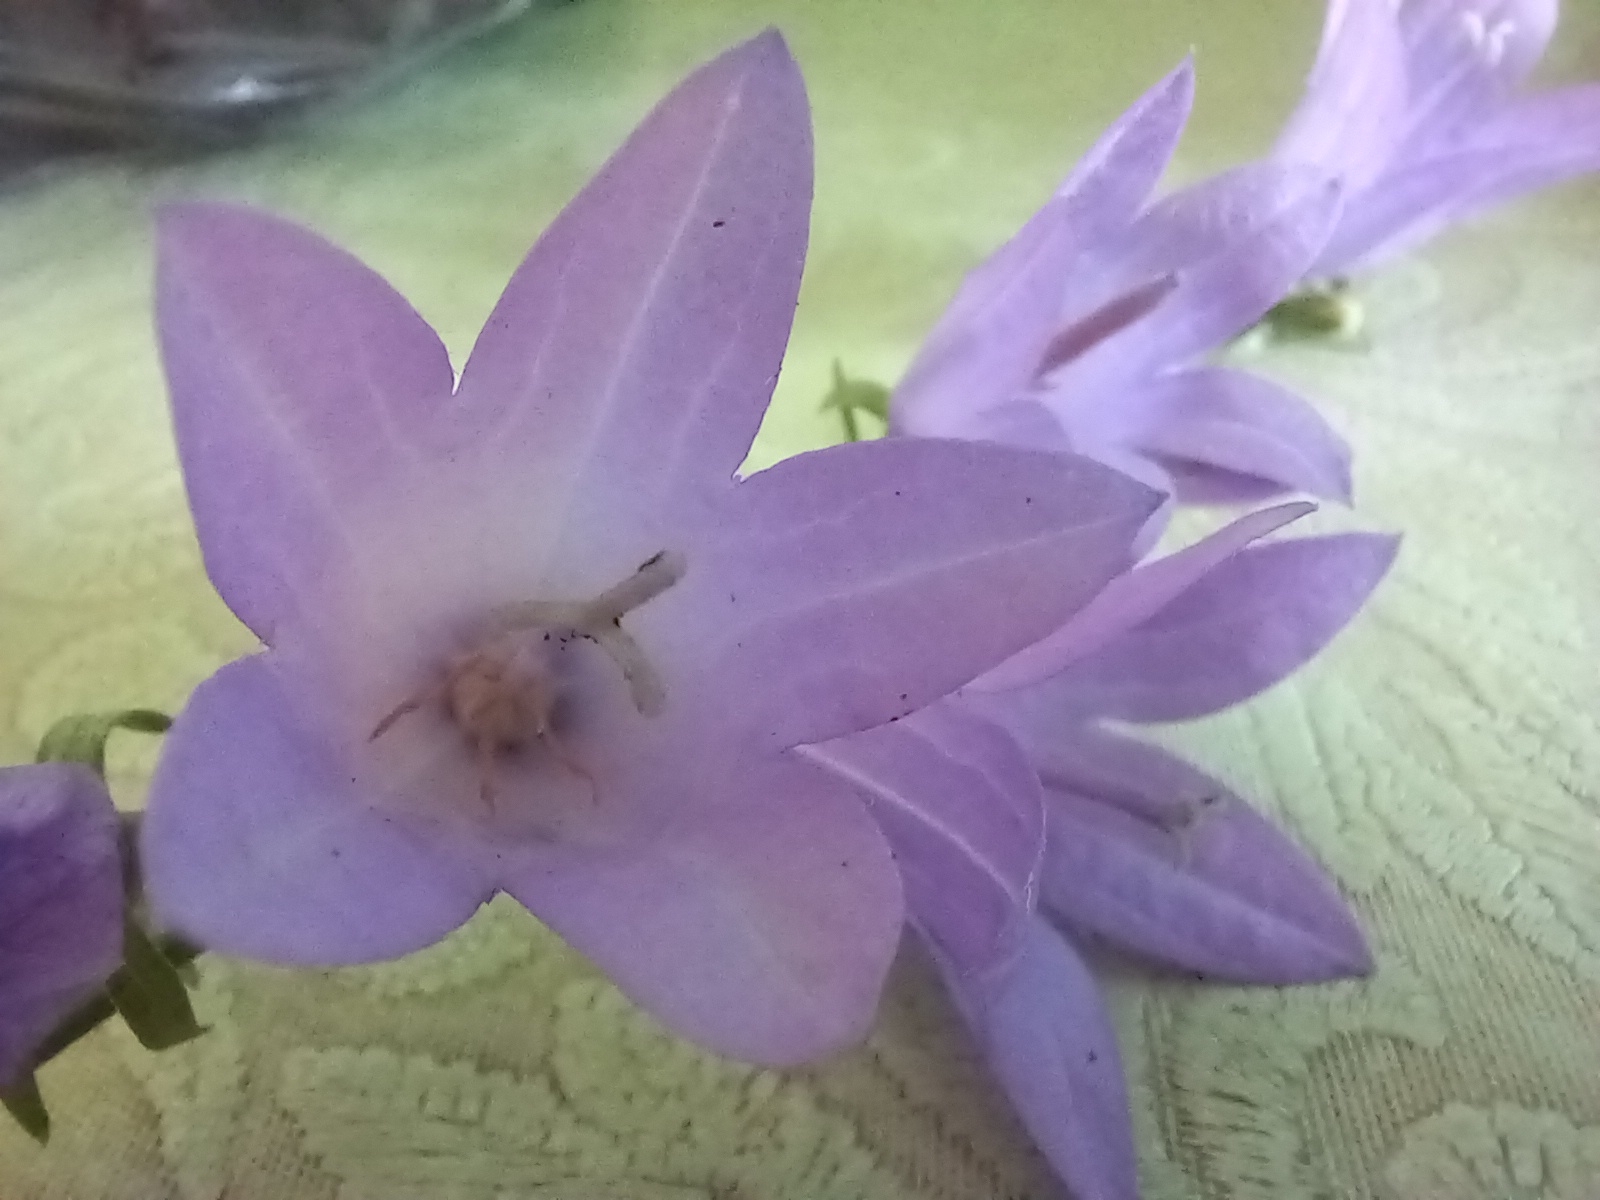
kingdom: Plantae
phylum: Tracheophyta
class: Magnoliopsida
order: Asterales
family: Campanulaceae
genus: Campanula
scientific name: Campanula rapunculoides
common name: Creeping bellflower
